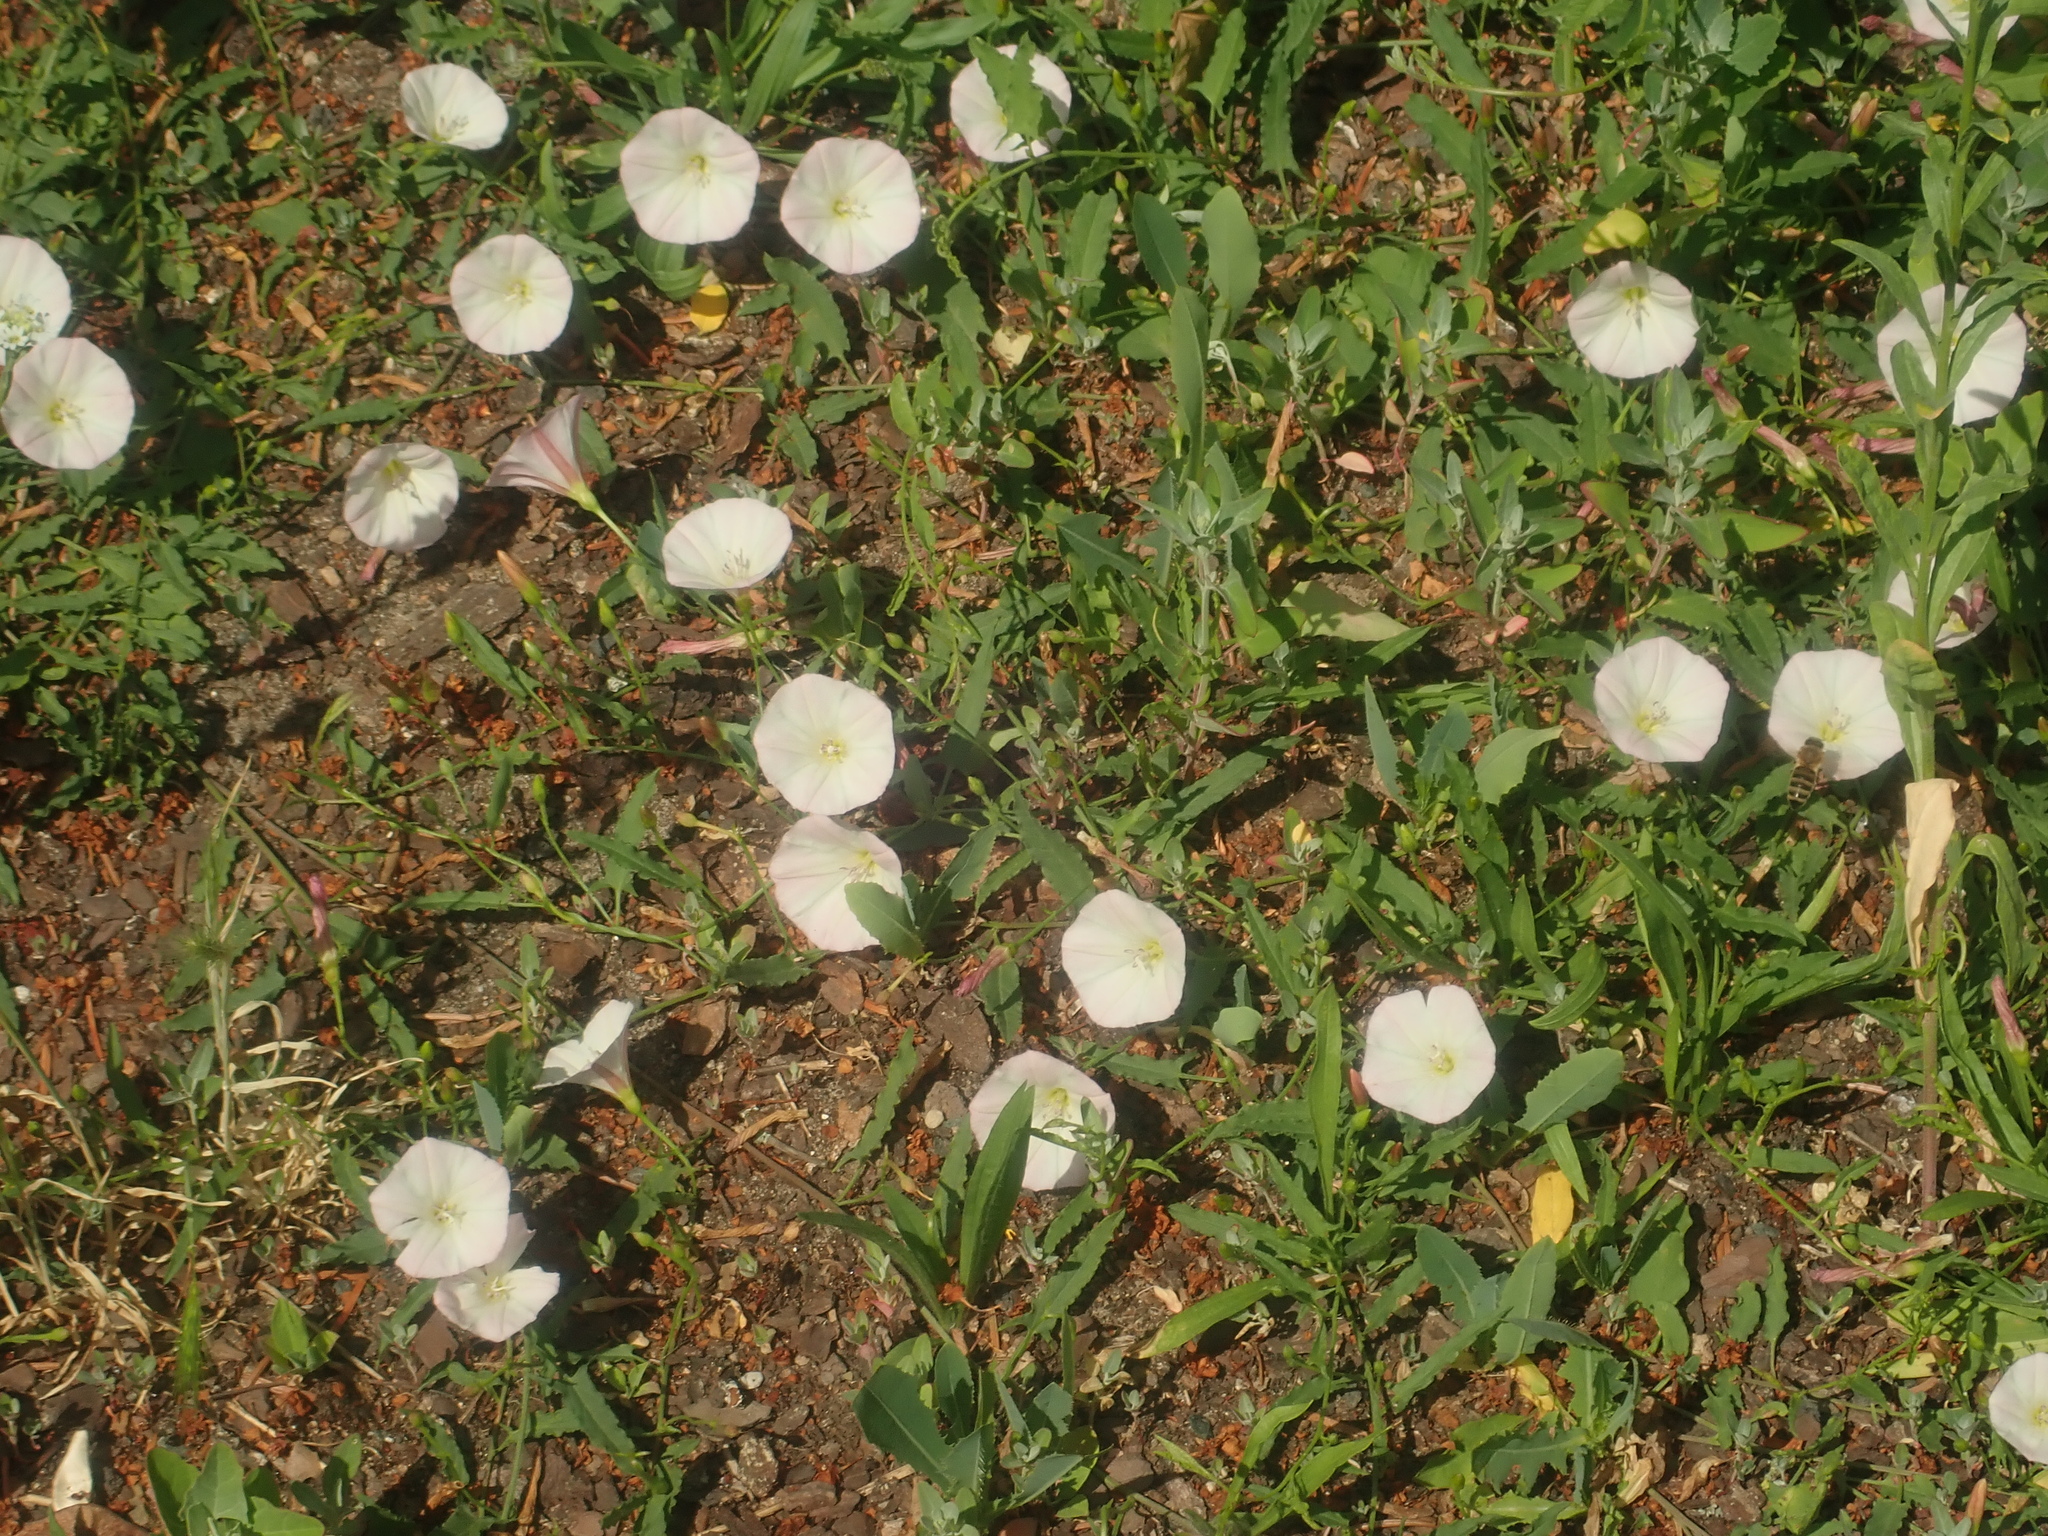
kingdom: Plantae
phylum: Tracheophyta
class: Magnoliopsida
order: Solanales
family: Convolvulaceae
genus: Convolvulus
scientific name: Convolvulus arvensis
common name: Field bindweed
